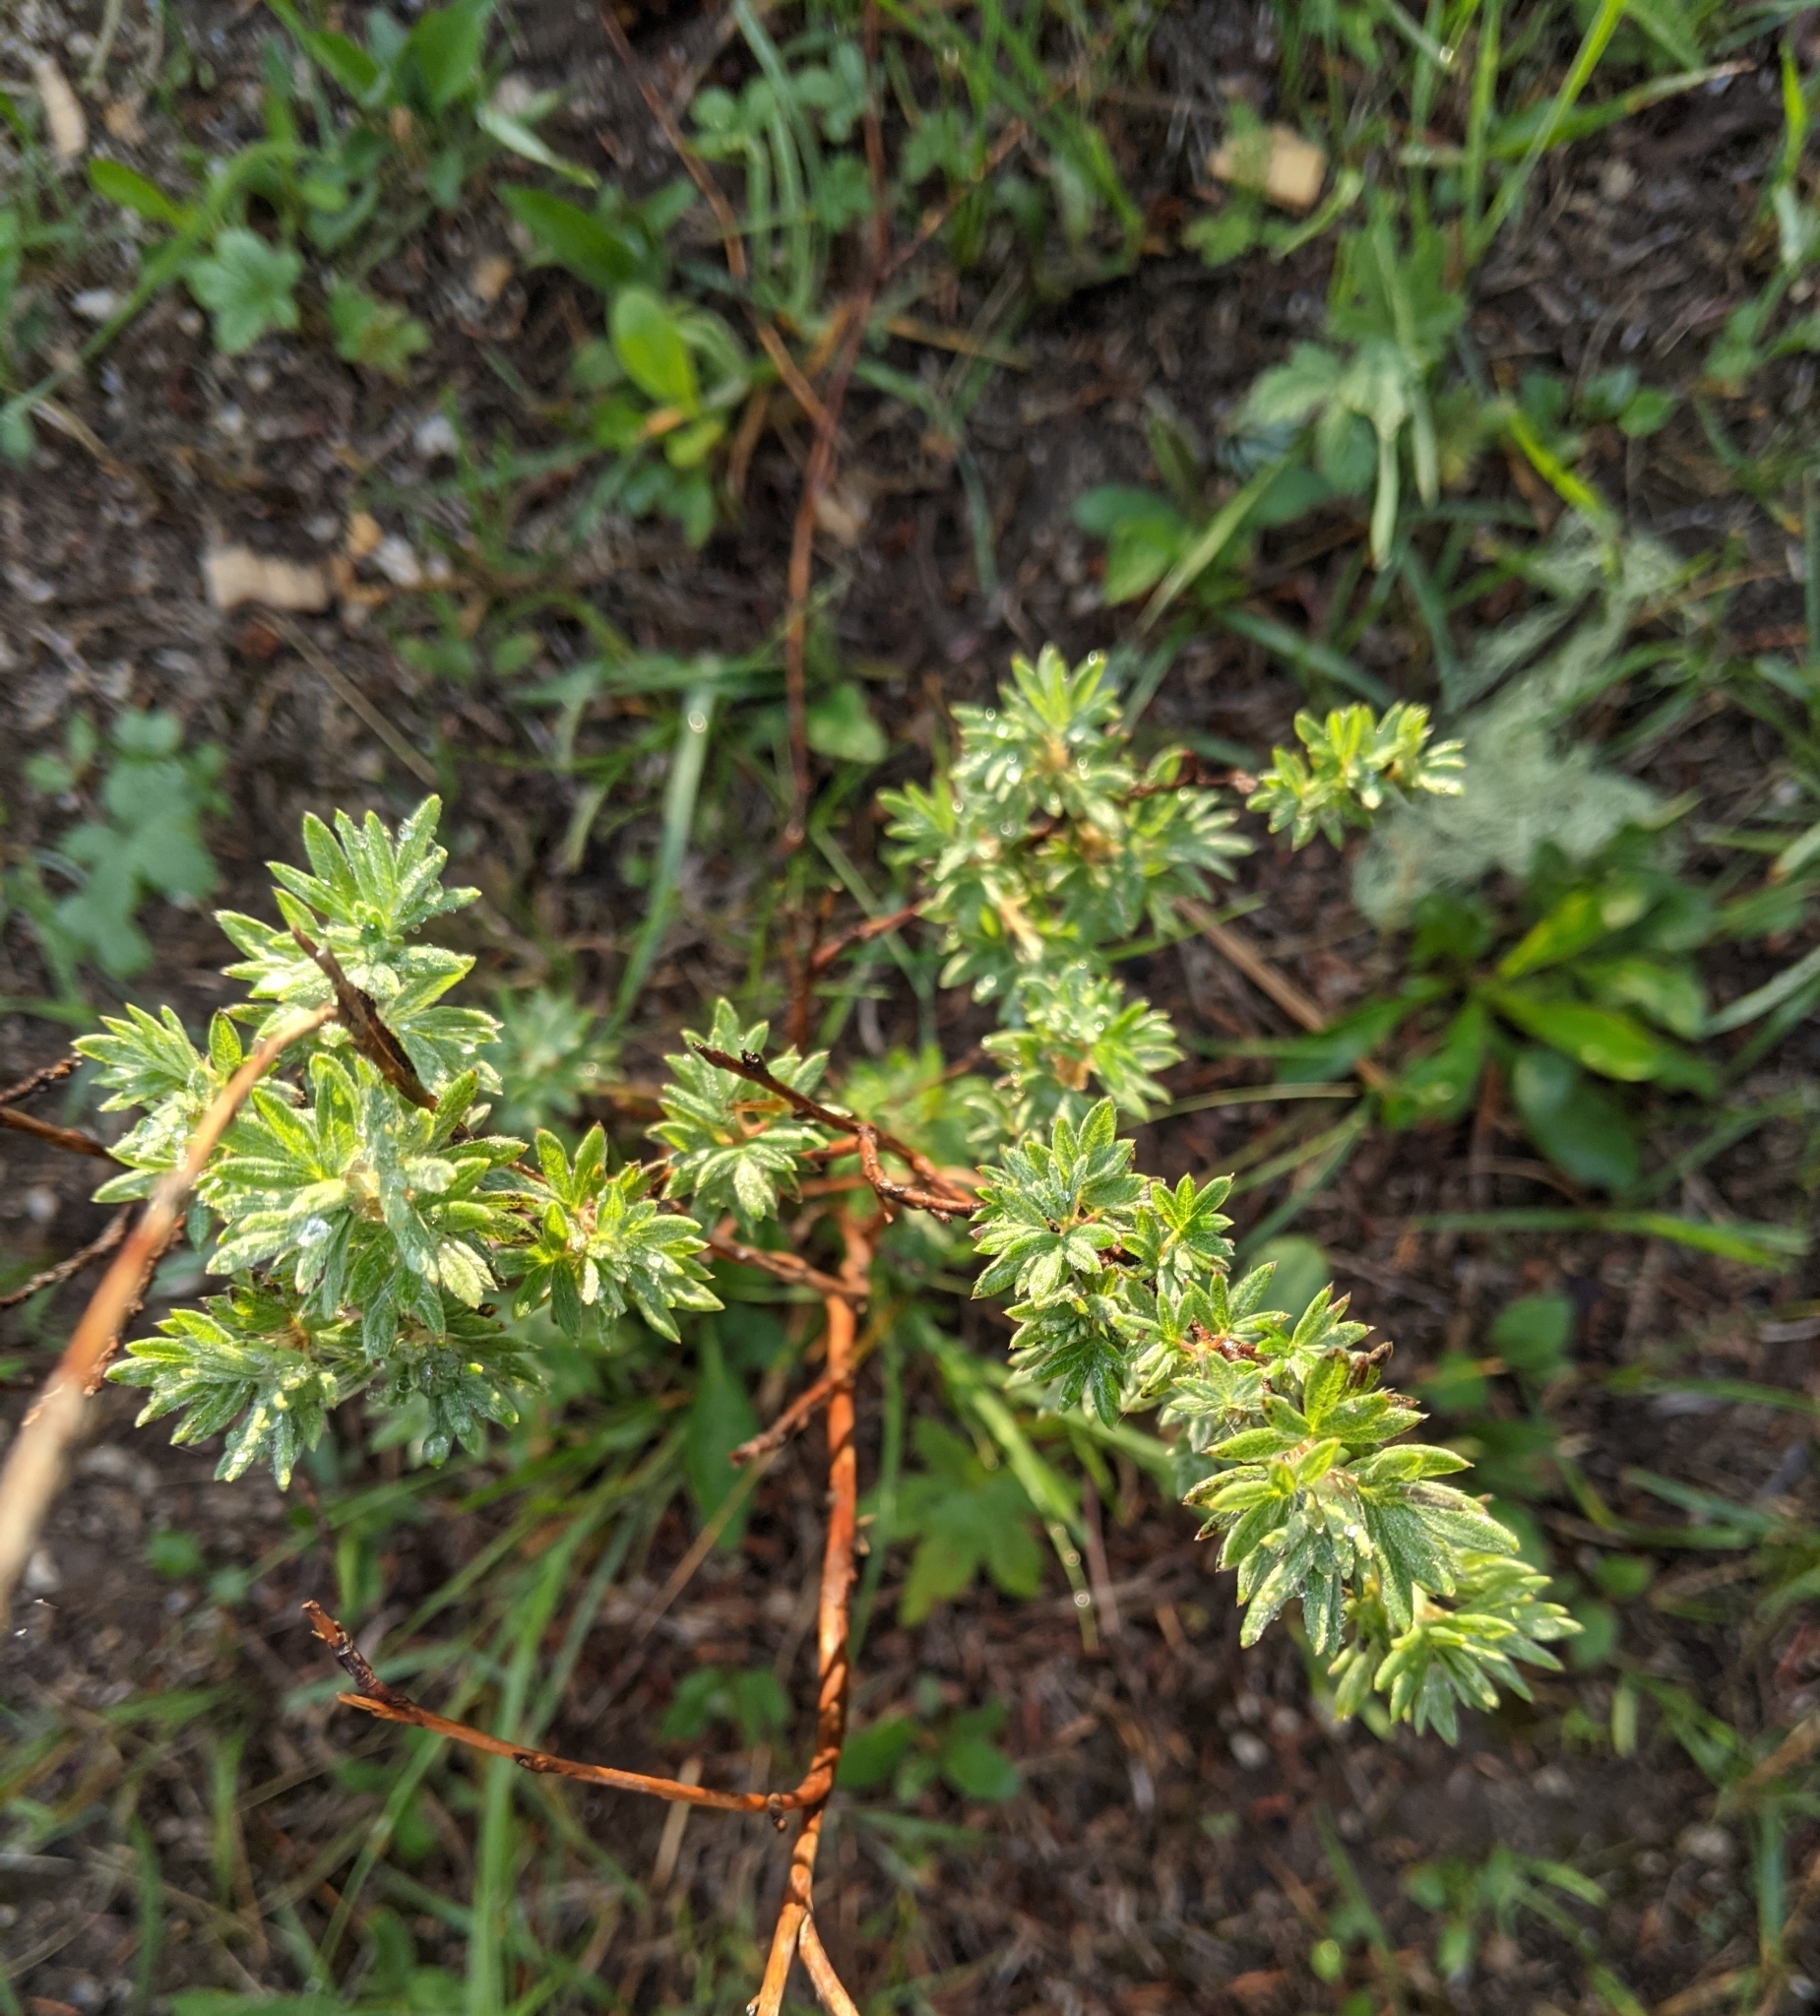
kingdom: Plantae
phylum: Tracheophyta
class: Magnoliopsida
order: Rosales
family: Rosaceae
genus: Dasiphora
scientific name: Dasiphora fruticosa
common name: Shrubby cinquefoil
